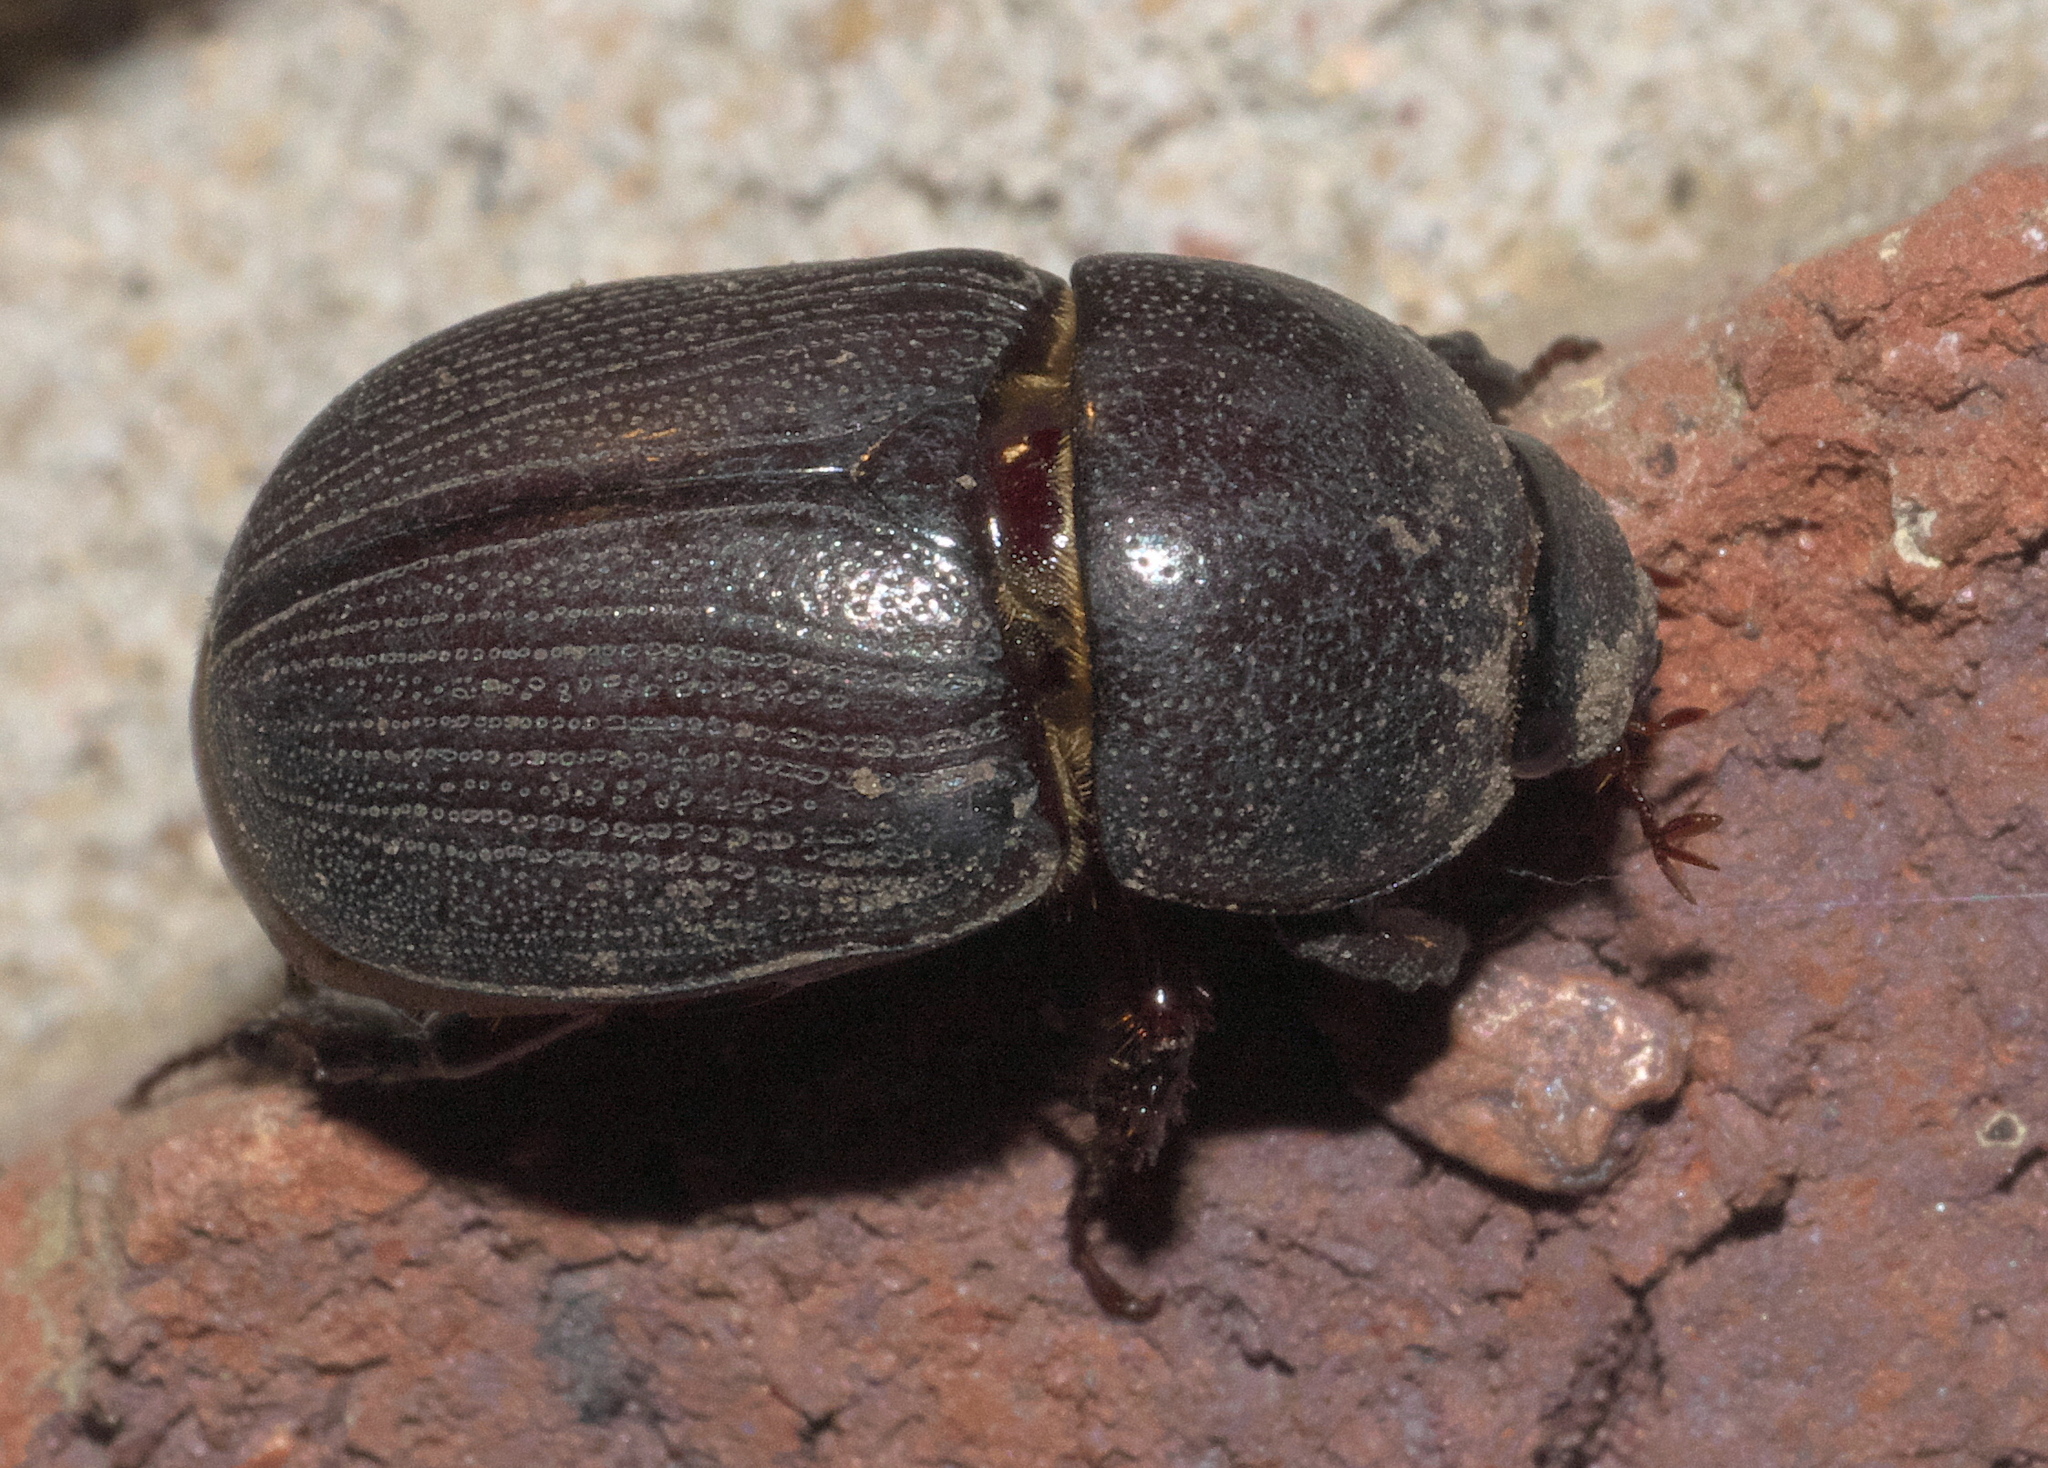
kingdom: Animalia
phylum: Arthropoda
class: Insecta
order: Coleoptera
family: Scarabaeidae
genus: Euetheola
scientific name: Euetheola humilis
